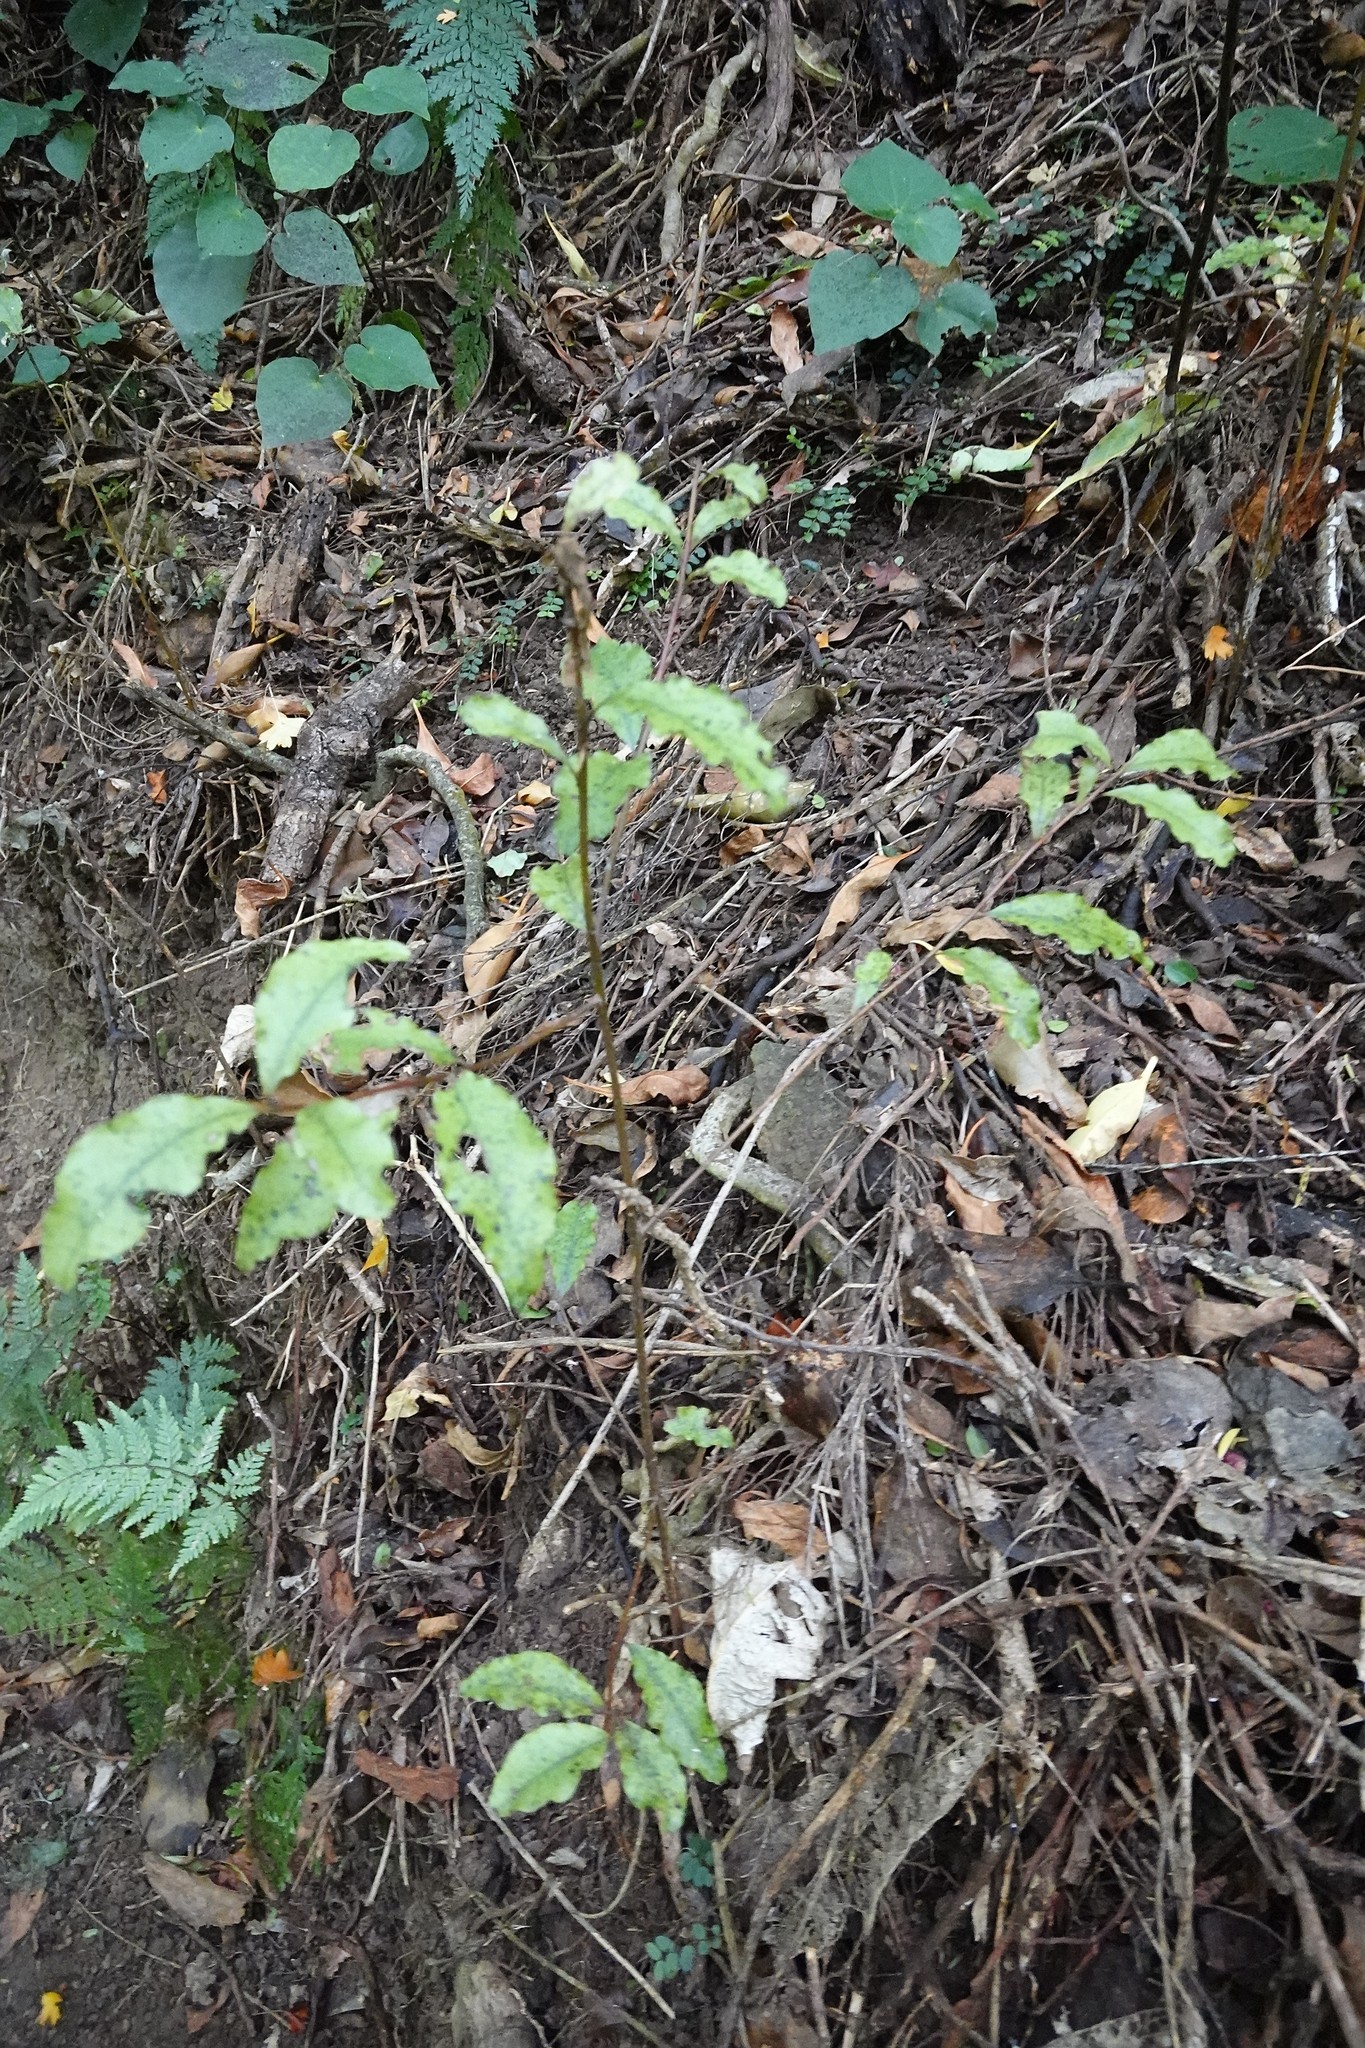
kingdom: Plantae
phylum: Tracheophyta
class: Magnoliopsida
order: Ericales
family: Primulaceae
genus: Myrsine
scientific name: Myrsine australis
